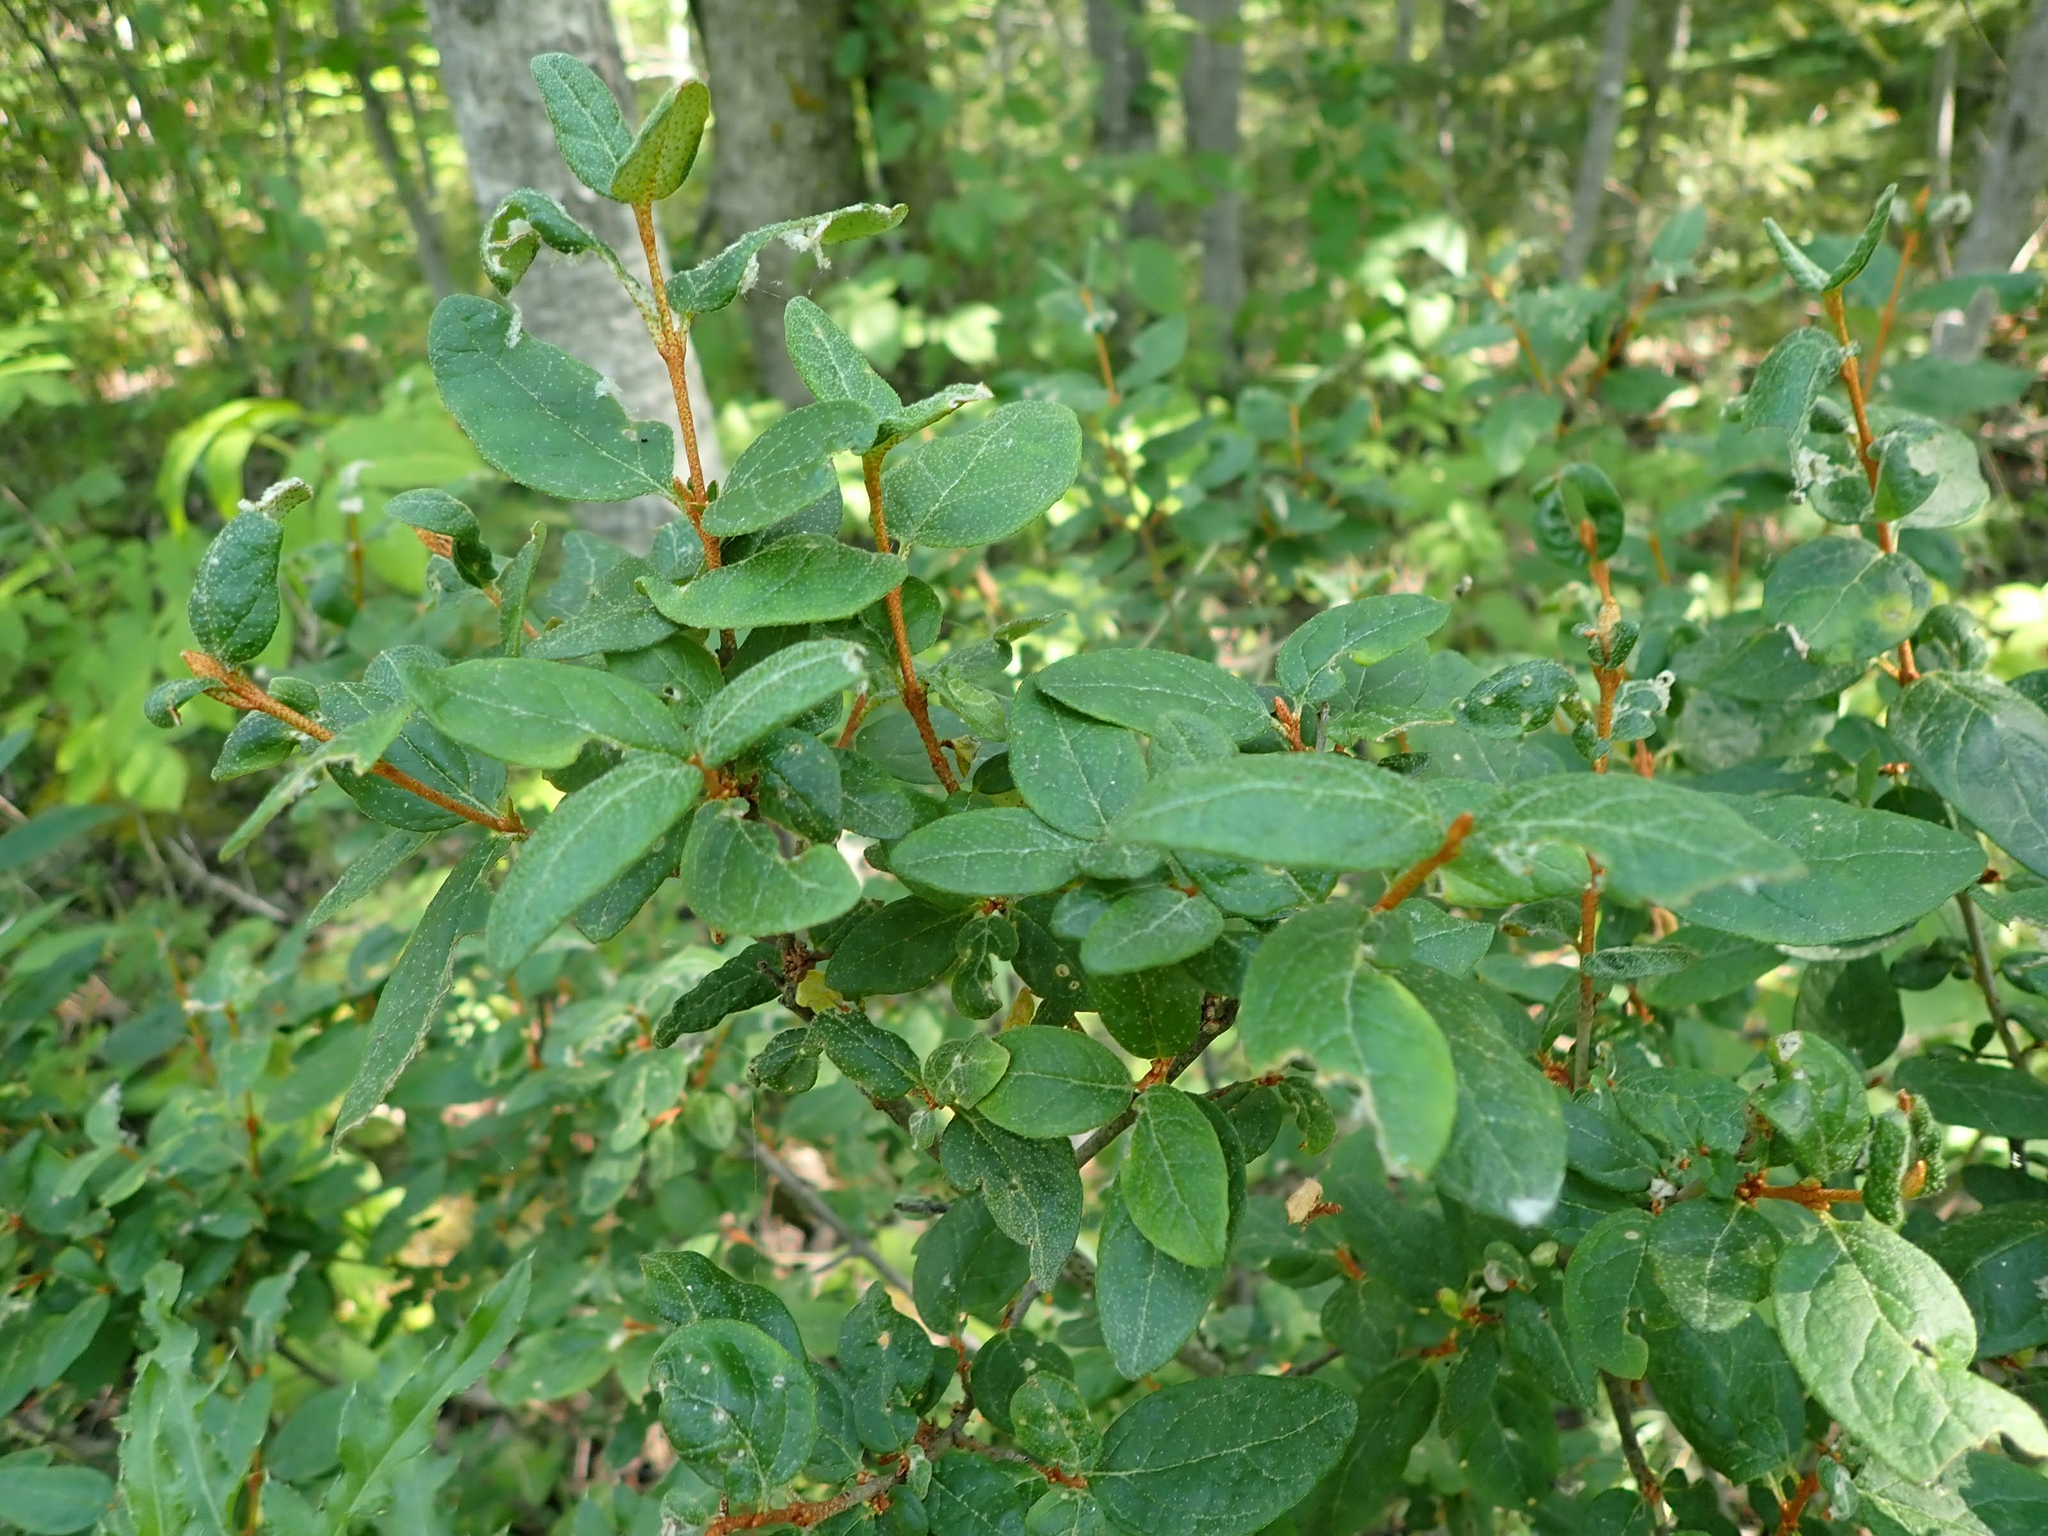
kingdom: Plantae
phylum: Tracheophyta
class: Magnoliopsida
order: Rosales
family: Elaeagnaceae
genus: Shepherdia
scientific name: Shepherdia canadensis
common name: Soapberry
